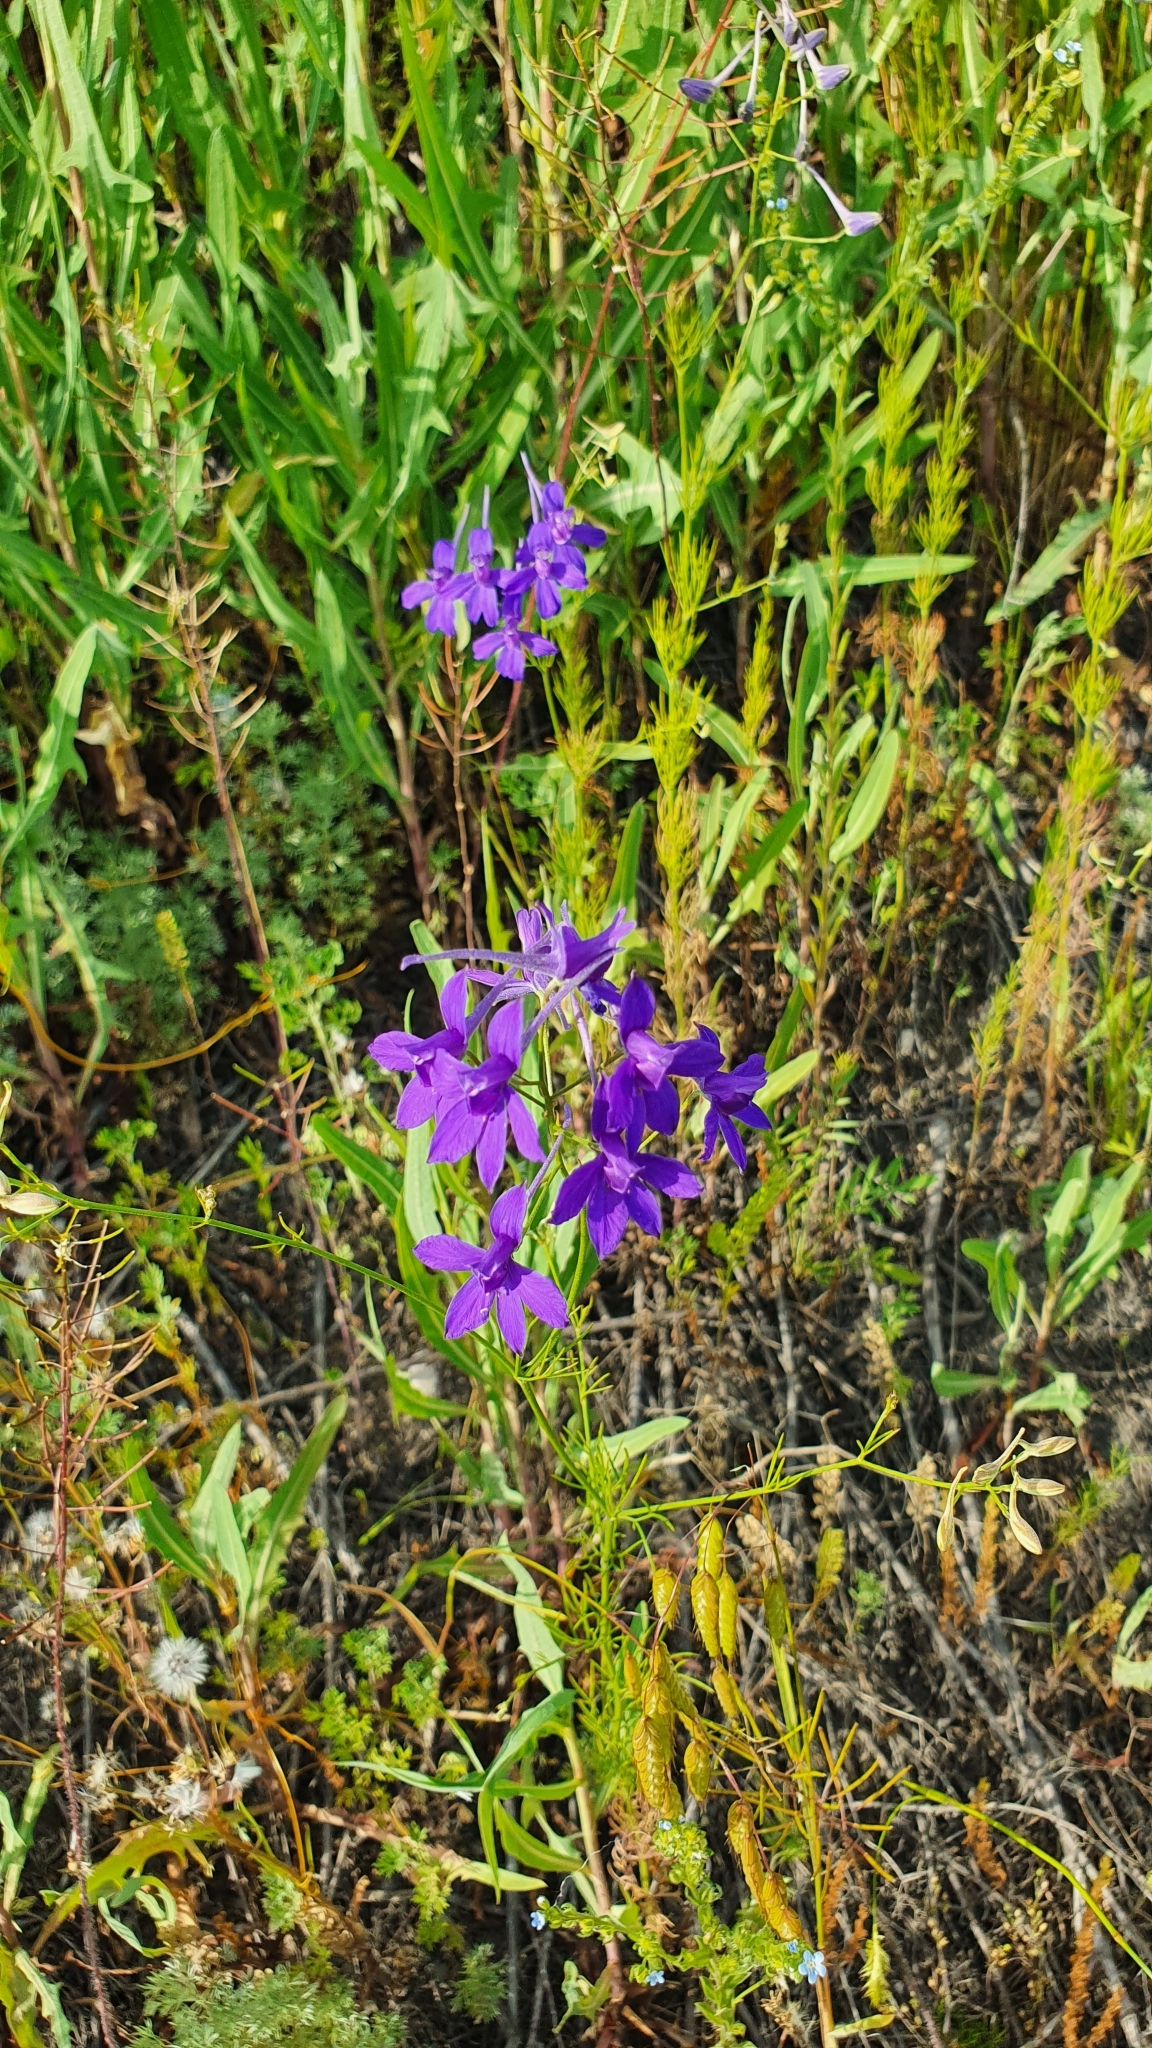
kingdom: Plantae
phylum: Tracheophyta
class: Magnoliopsida
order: Ranunculales
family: Ranunculaceae
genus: Delphinium
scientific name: Delphinium consolida
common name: Branching larkspur
